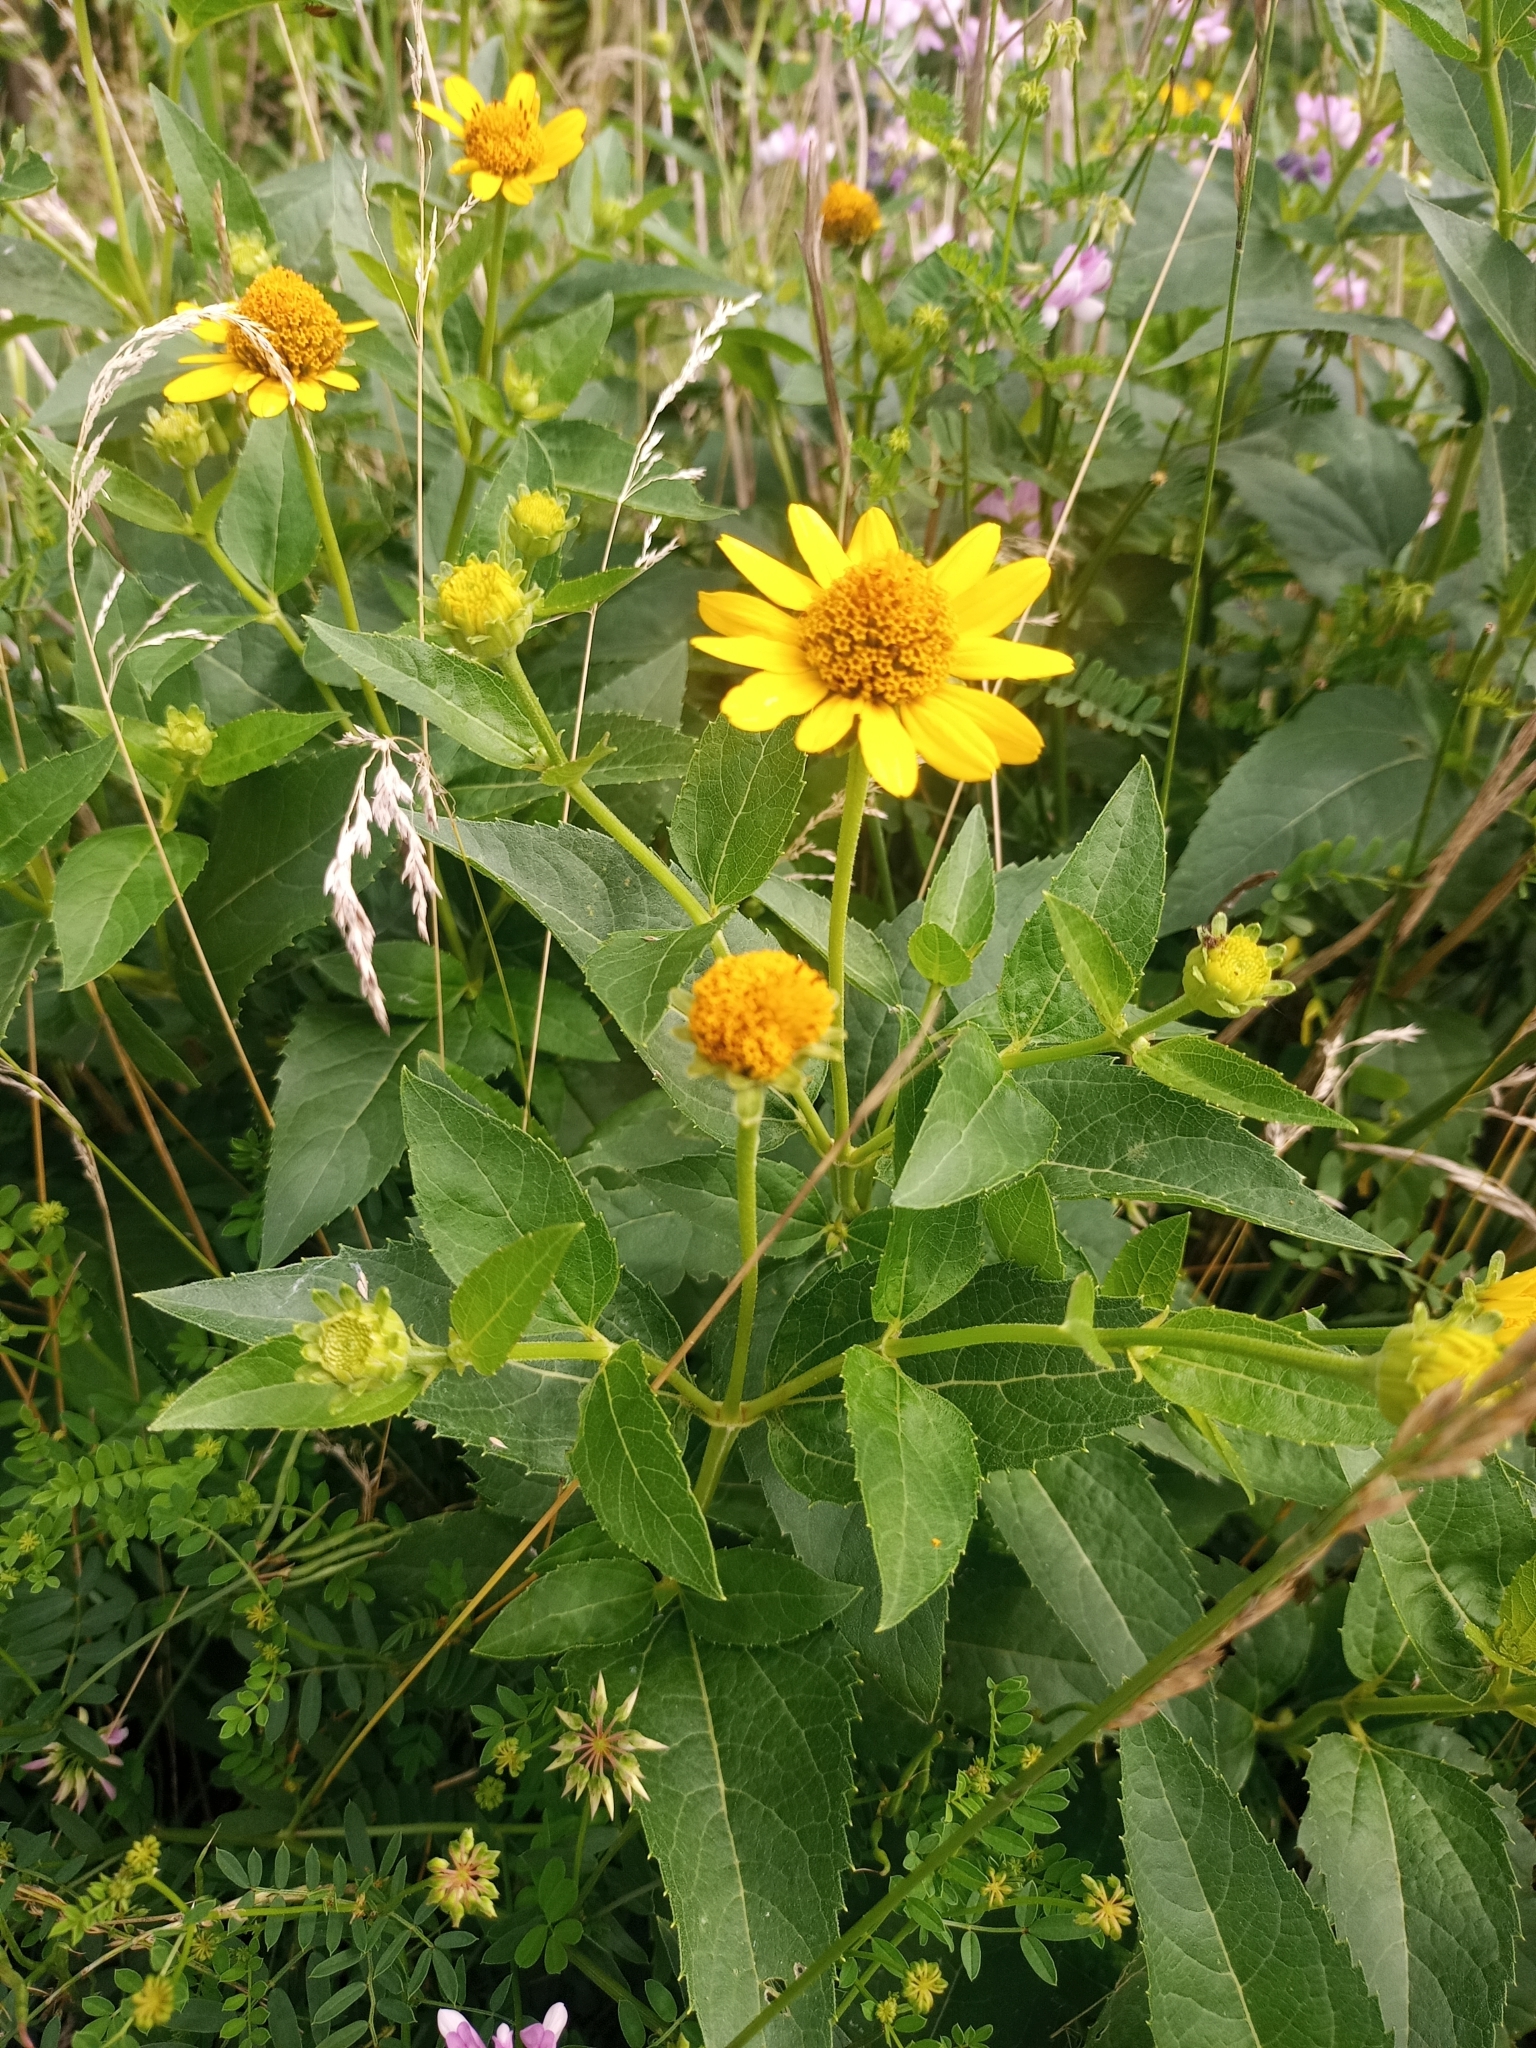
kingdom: Plantae
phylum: Tracheophyta
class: Magnoliopsida
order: Asterales
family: Asteraceae
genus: Heliopsis
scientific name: Heliopsis helianthoides
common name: False sunflower
